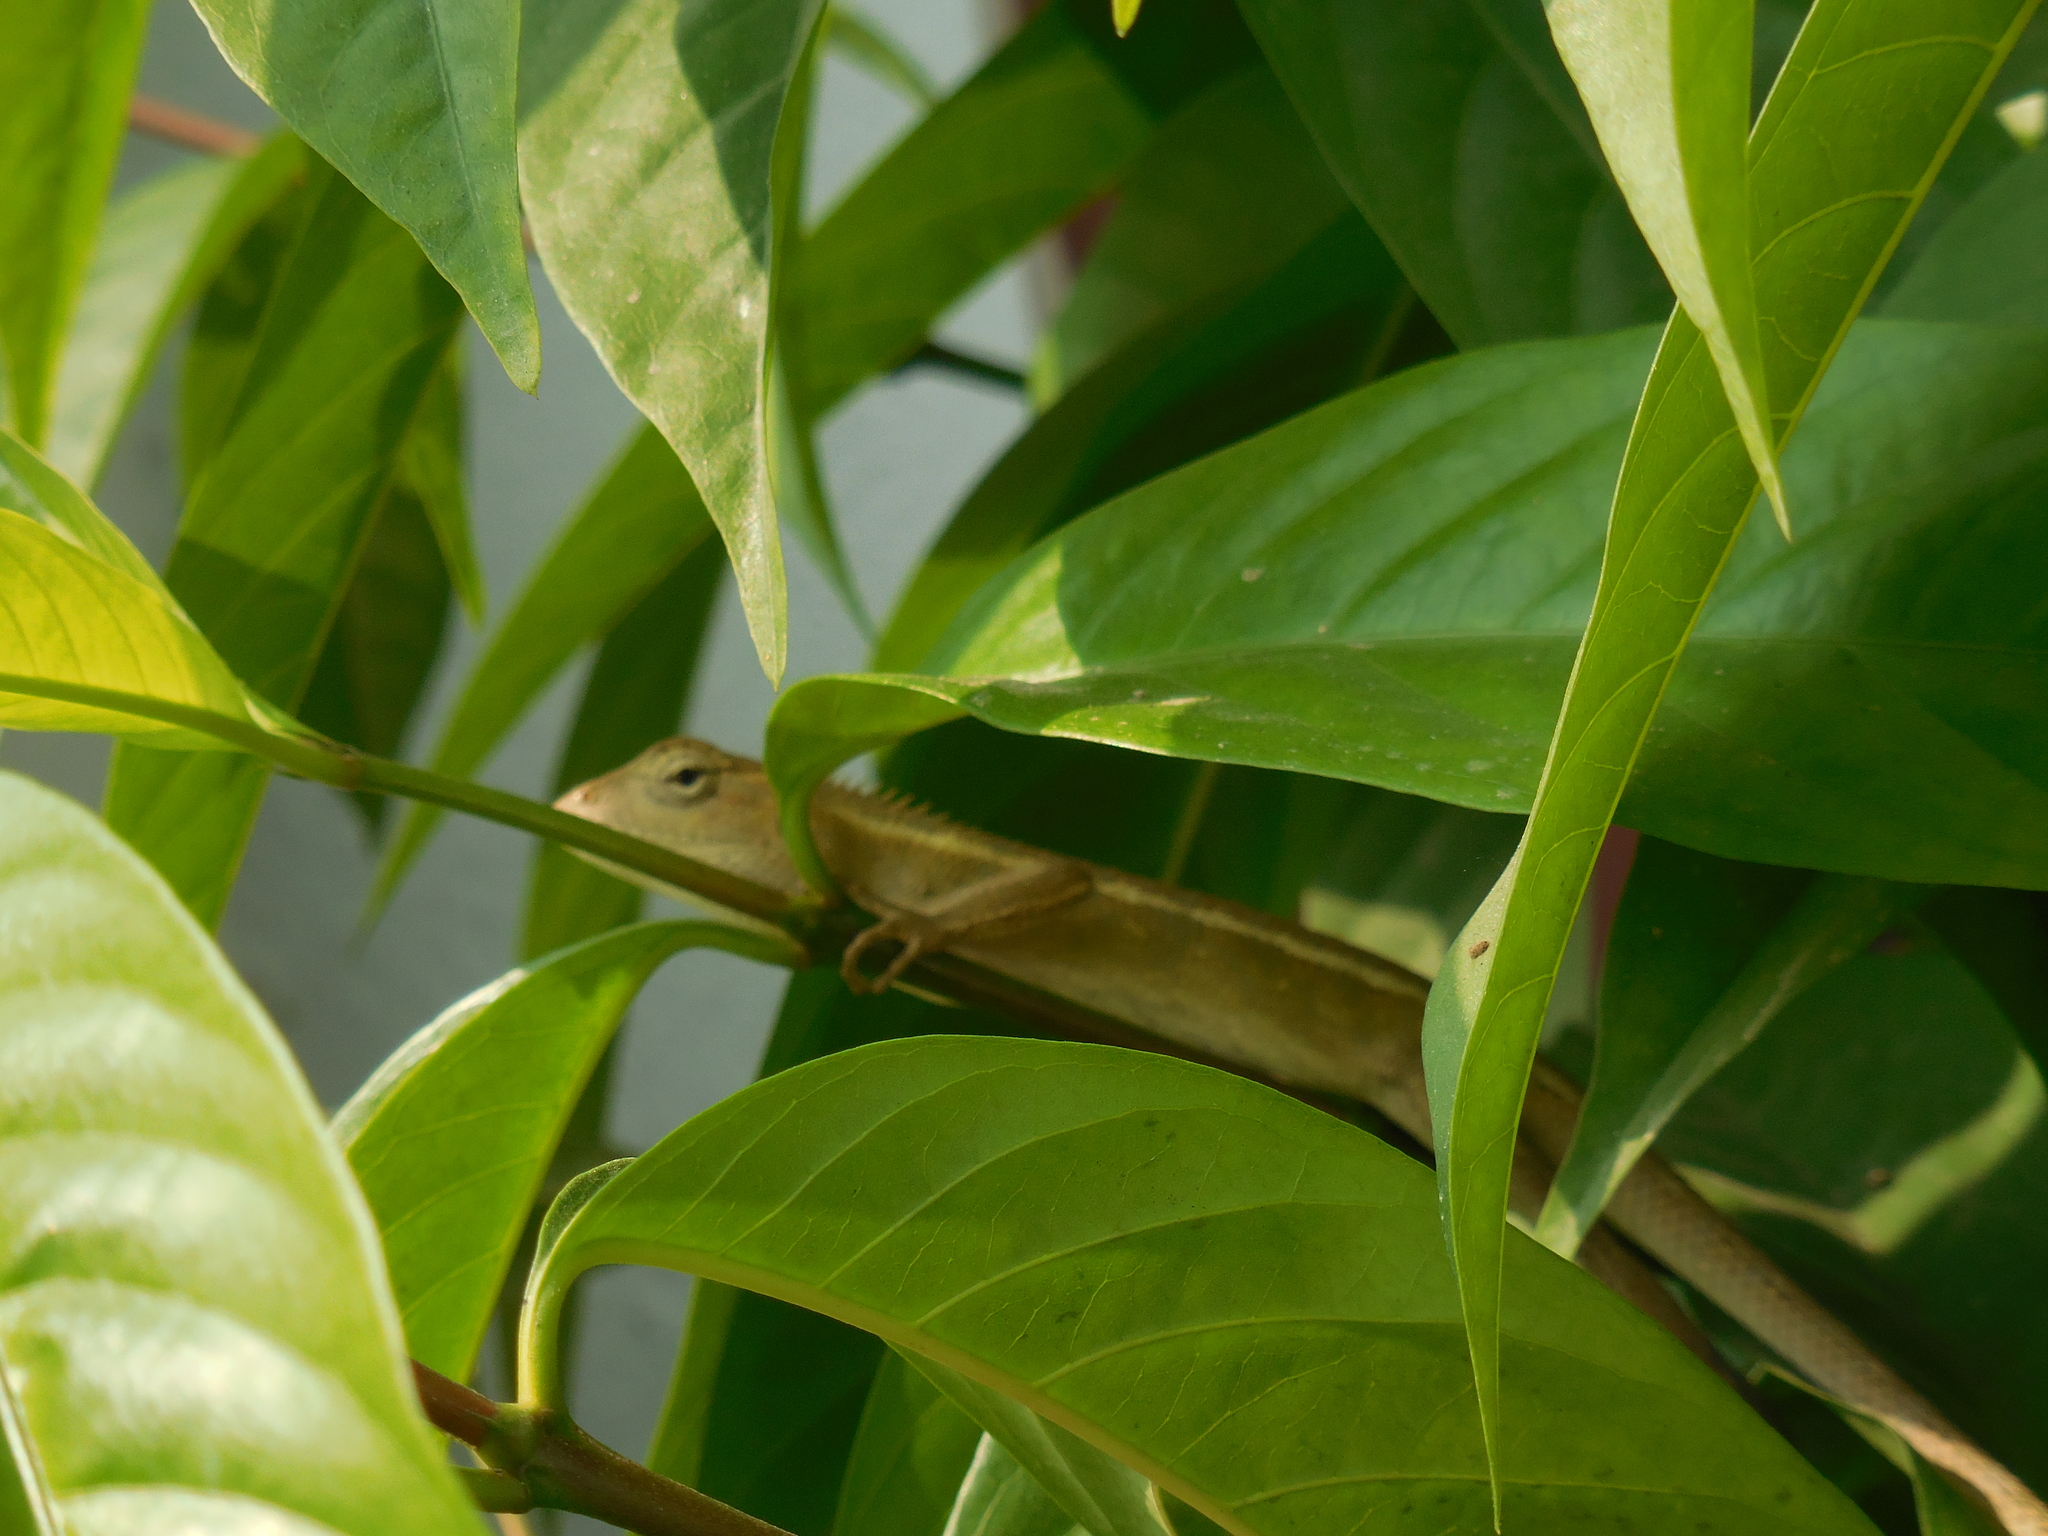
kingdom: Animalia
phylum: Chordata
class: Squamata
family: Agamidae
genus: Calotes
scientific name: Calotes versicolor
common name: Oriental garden lizard
